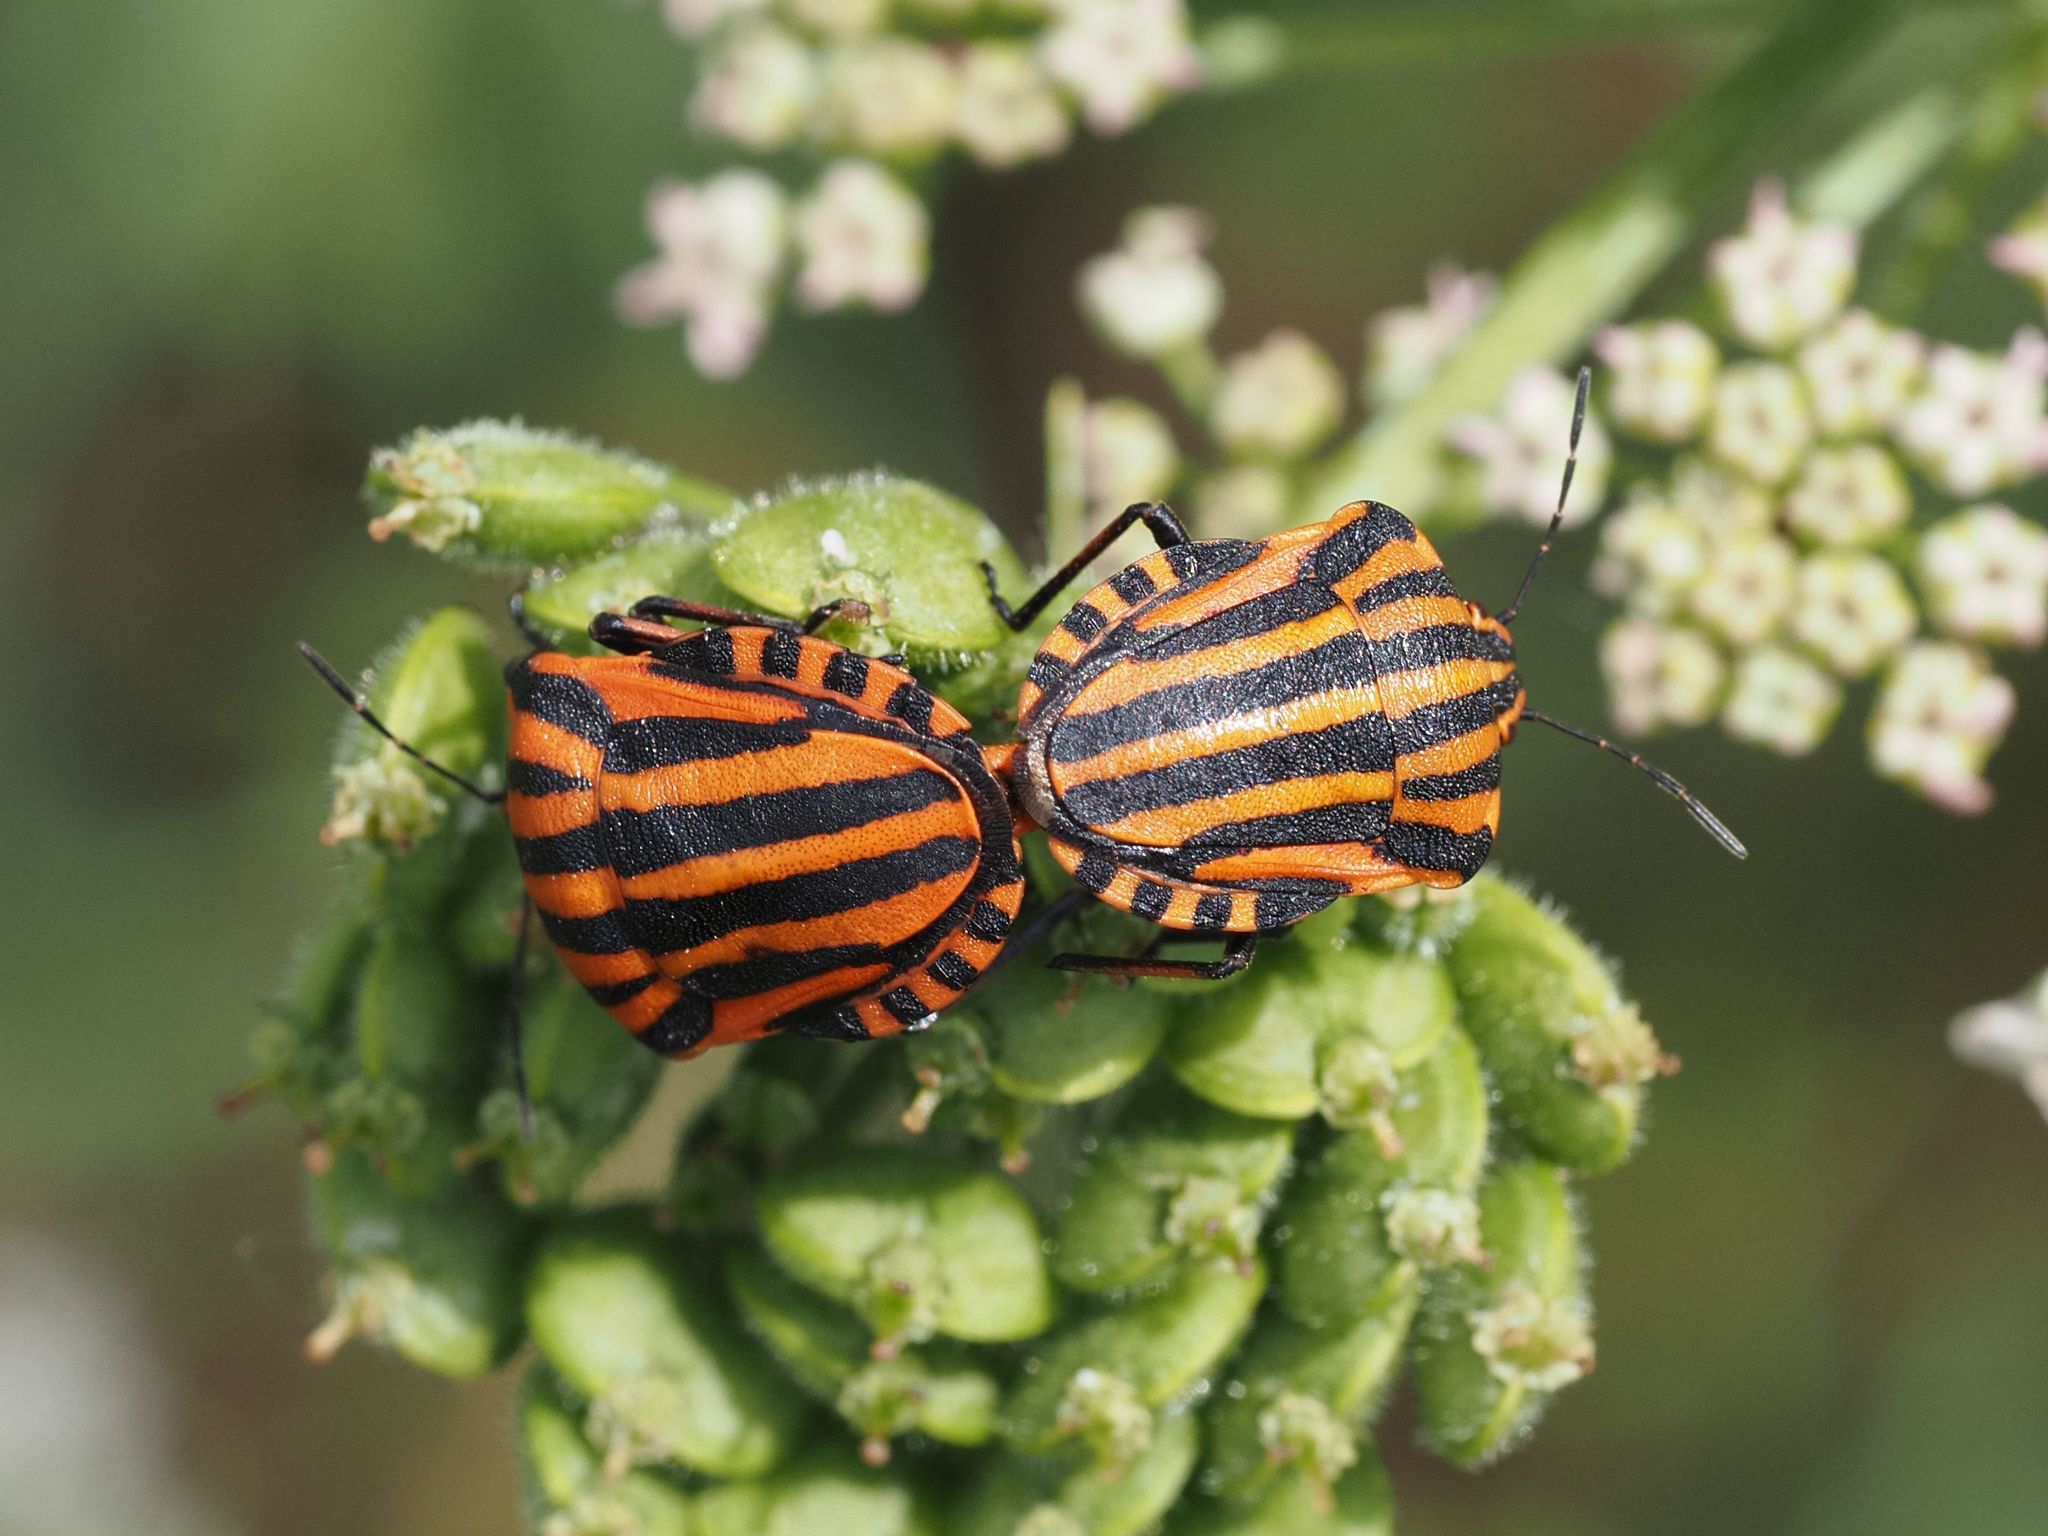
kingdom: Animalia
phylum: Arthropoda
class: Insecta
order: Hemiptera
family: Pentatomidae
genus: Graphosoma
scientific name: Graphosoma italicum
